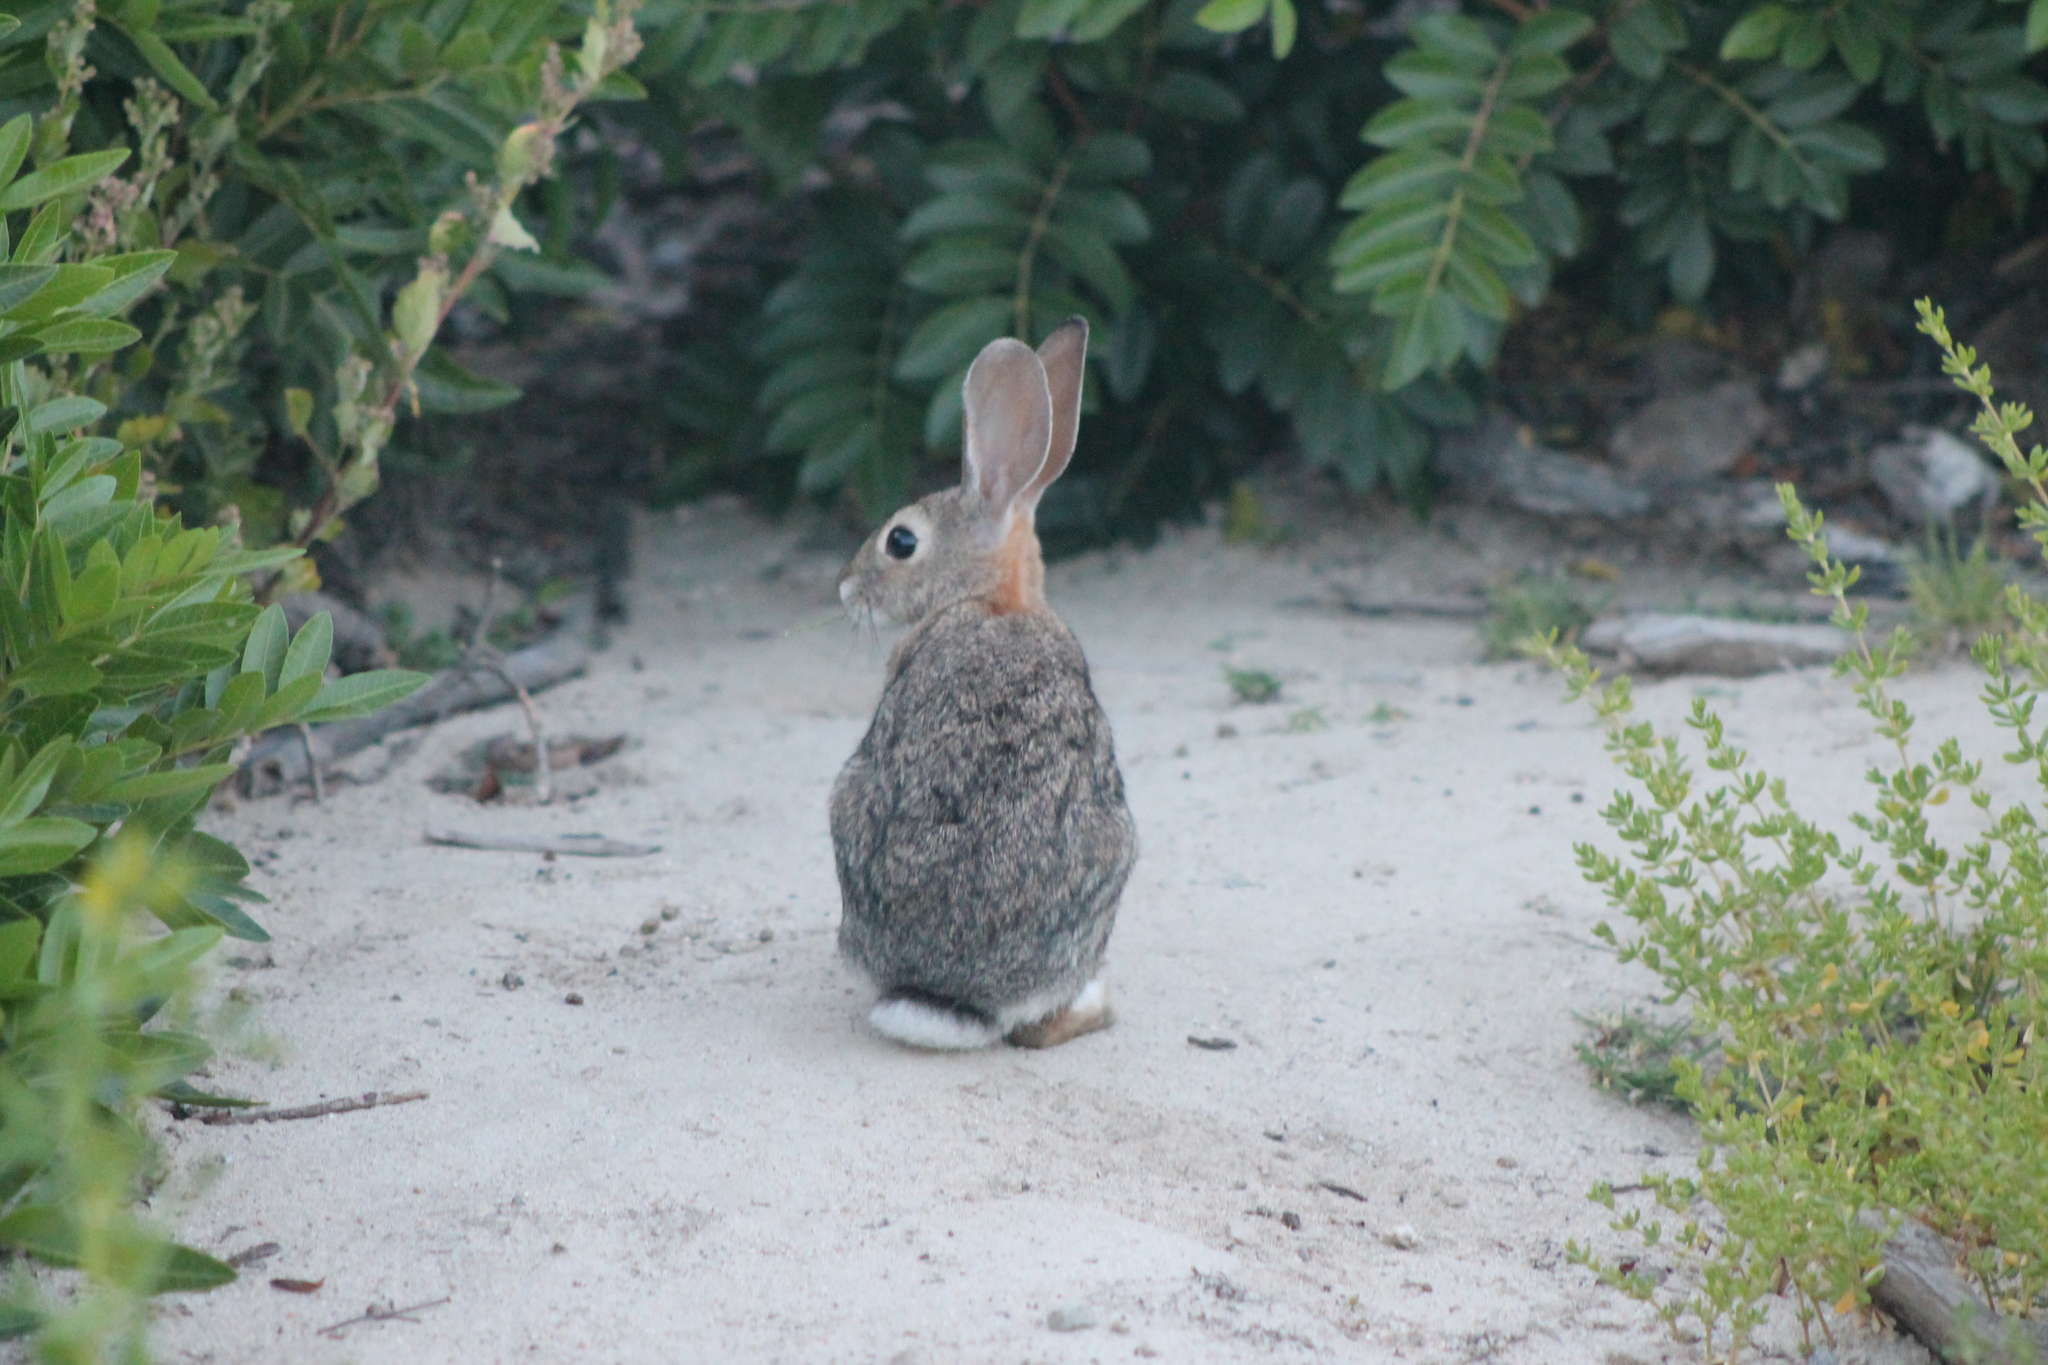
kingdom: Animalia
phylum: Chordata
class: Mammalia
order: Lagomorpha
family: Leporidae
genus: Sylvilagus
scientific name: Sylvilagus audubonii
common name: Desert cottontail
